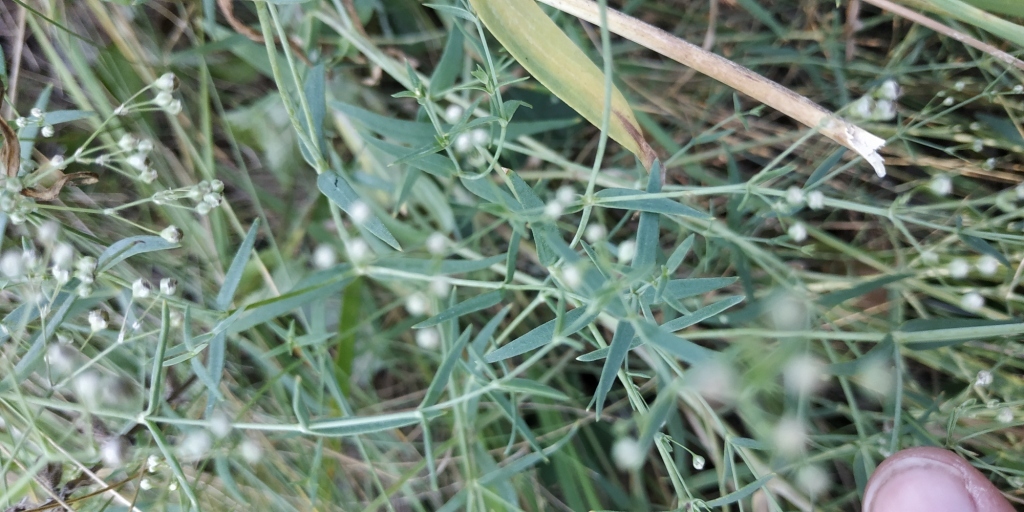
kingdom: Plantae
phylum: Tracheophyta
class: Magnoliopsida
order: Caryophyllales
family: Caryophyllaceae
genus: Gypsophila
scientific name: Gypsophila paniculata
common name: Baby's-breath
